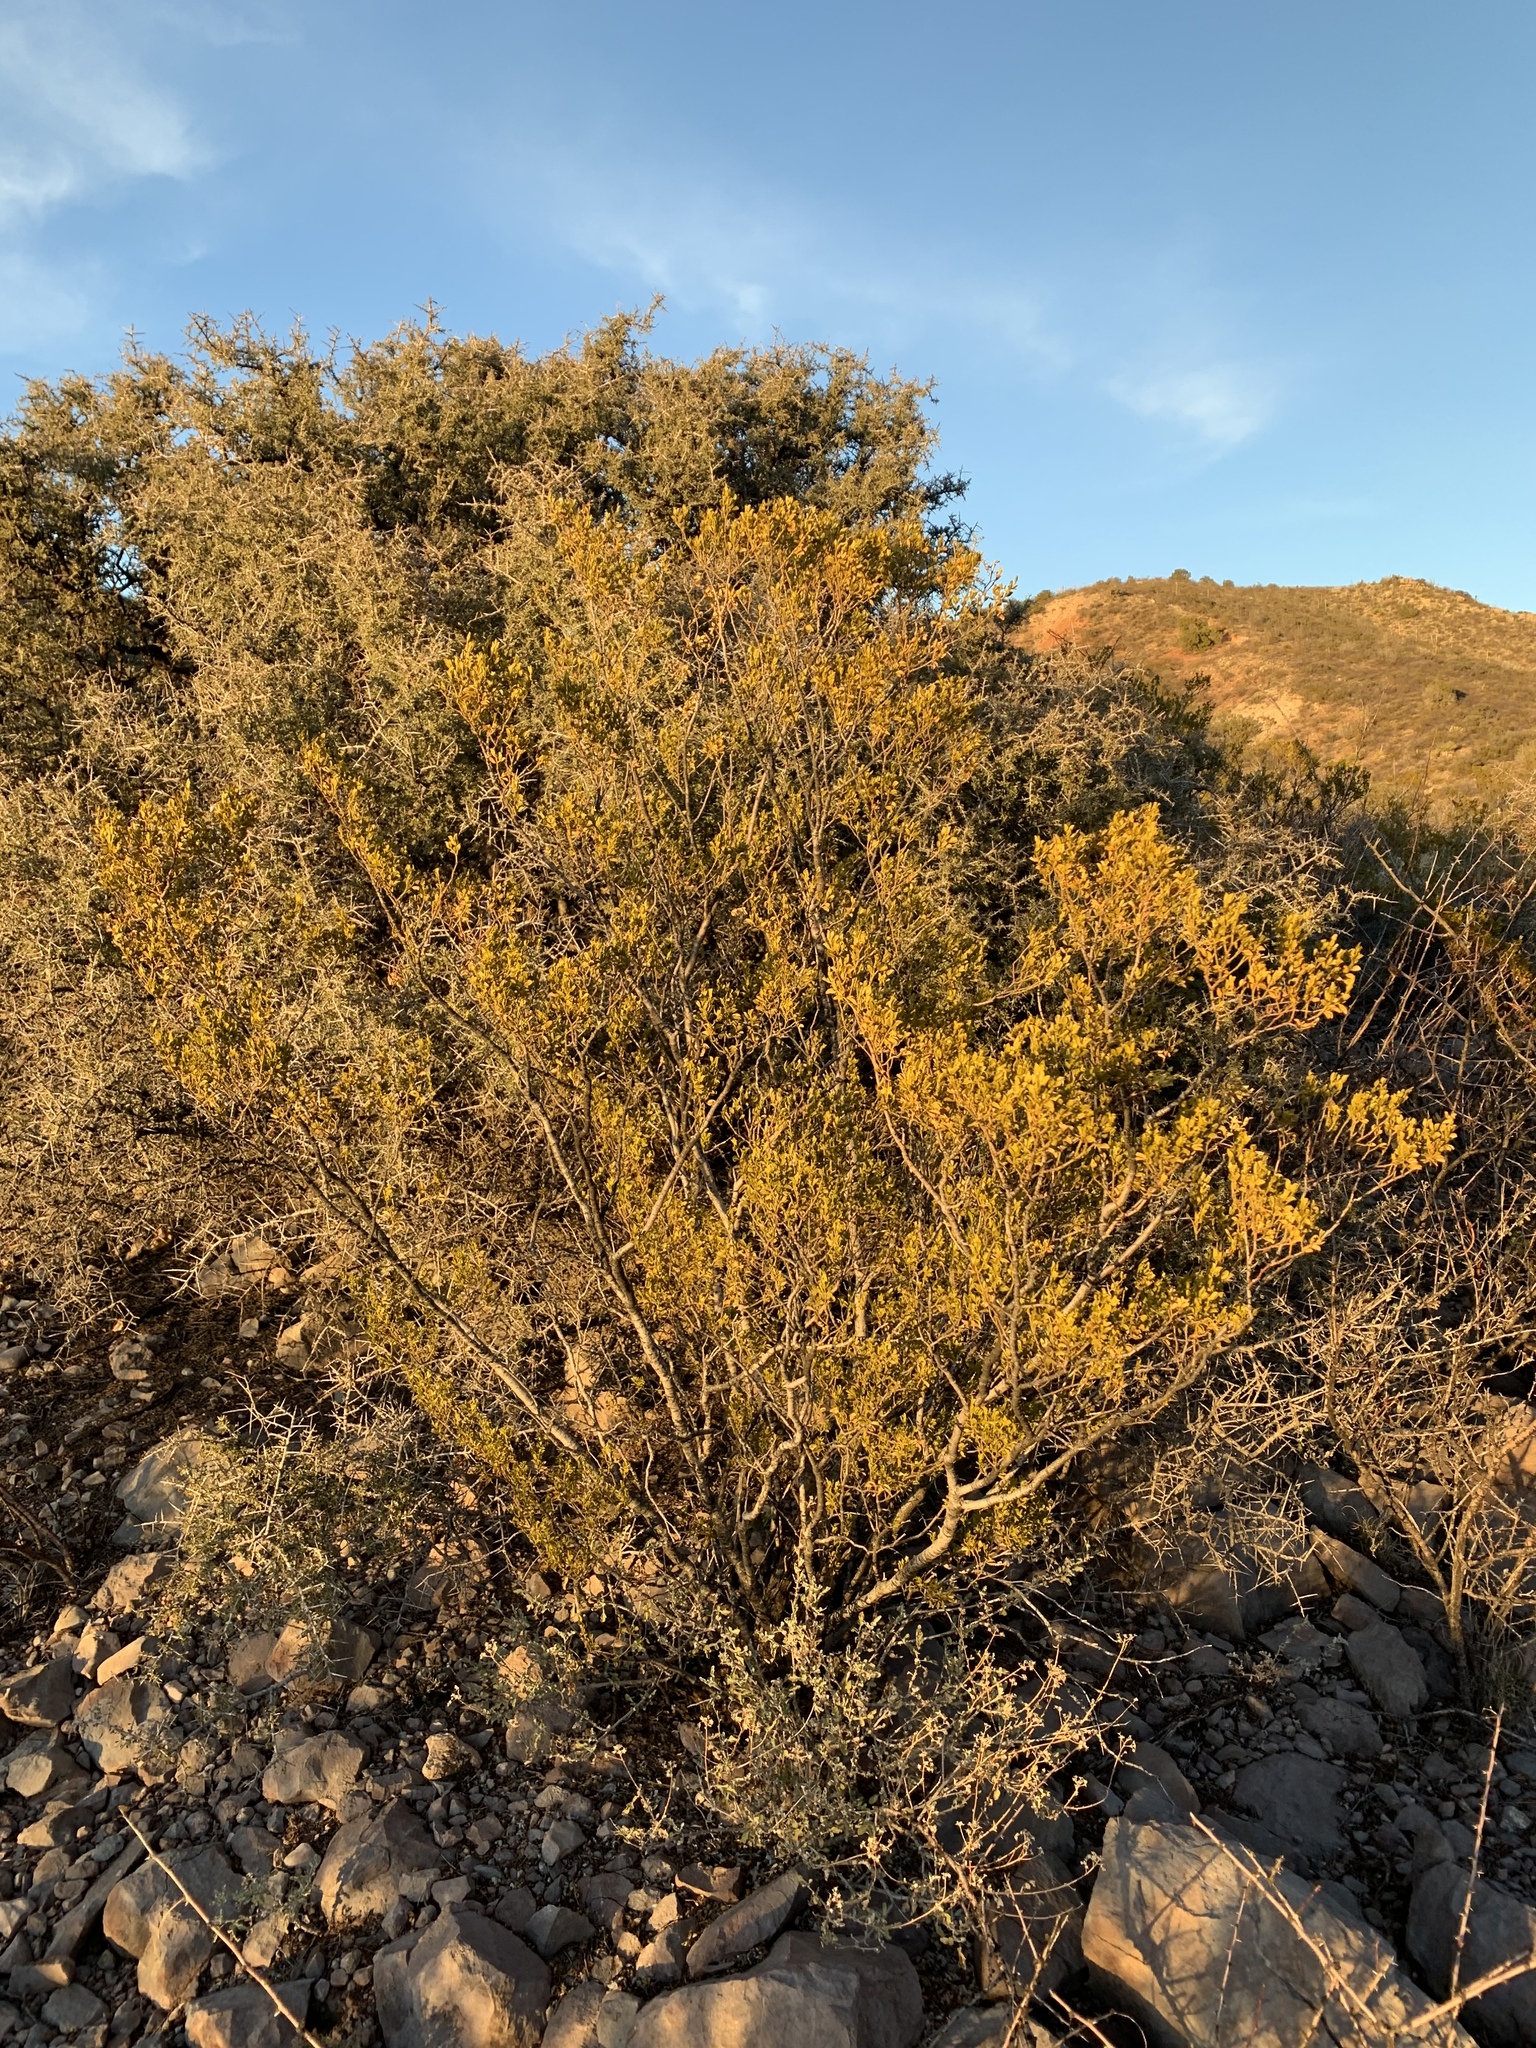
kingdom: Plantae
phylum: Tracheophyta
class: Magnoliopsida
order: Zygophyllales
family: Zygophyllaceae
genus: Larrea
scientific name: Larrea tridentata
